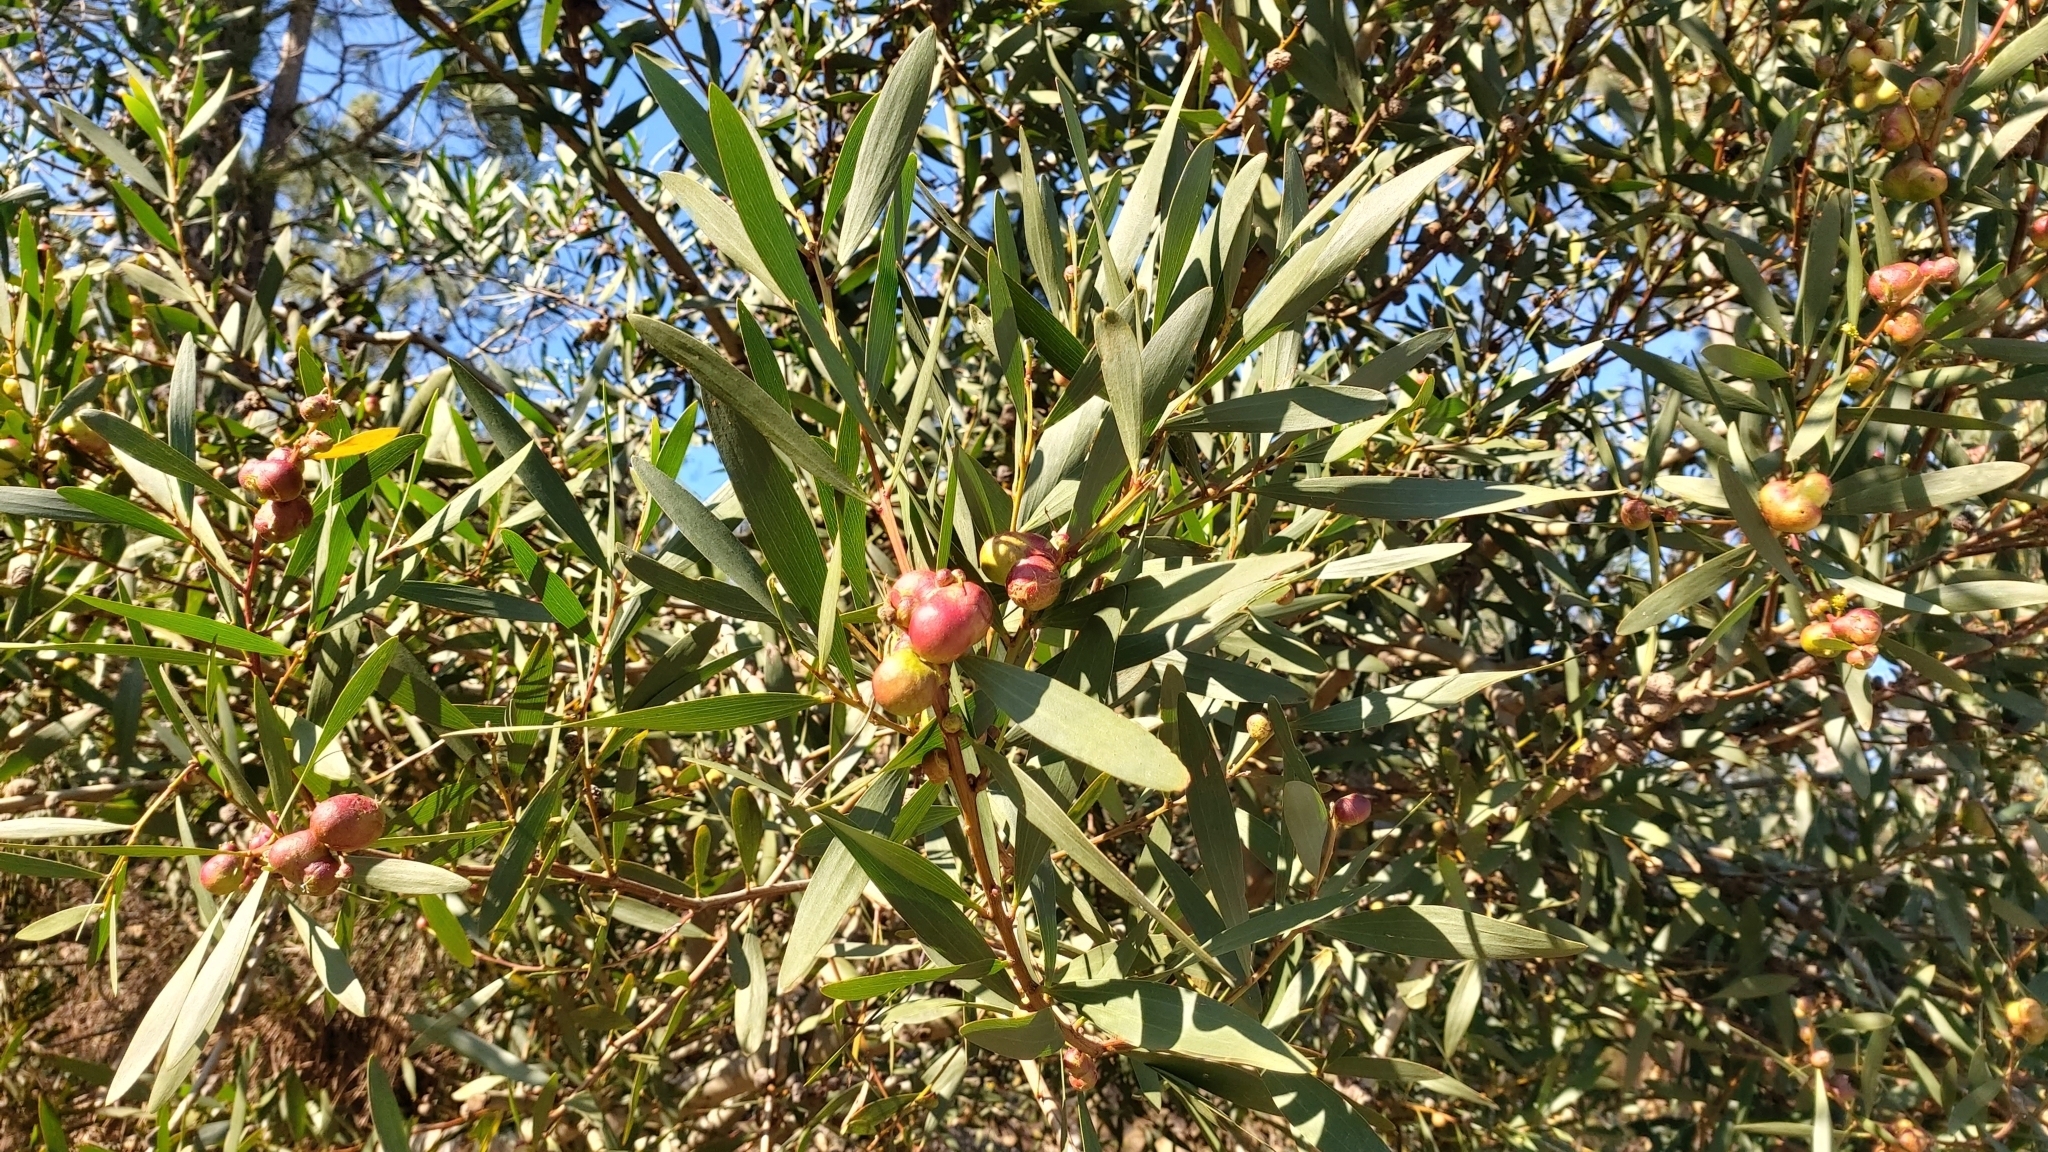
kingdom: Plantae
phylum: Tracheophyta
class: Magnoliopsida
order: Fabales
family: Fabaceae
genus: Acacia
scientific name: Acacia longifolia
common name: Sydney golden wattle
